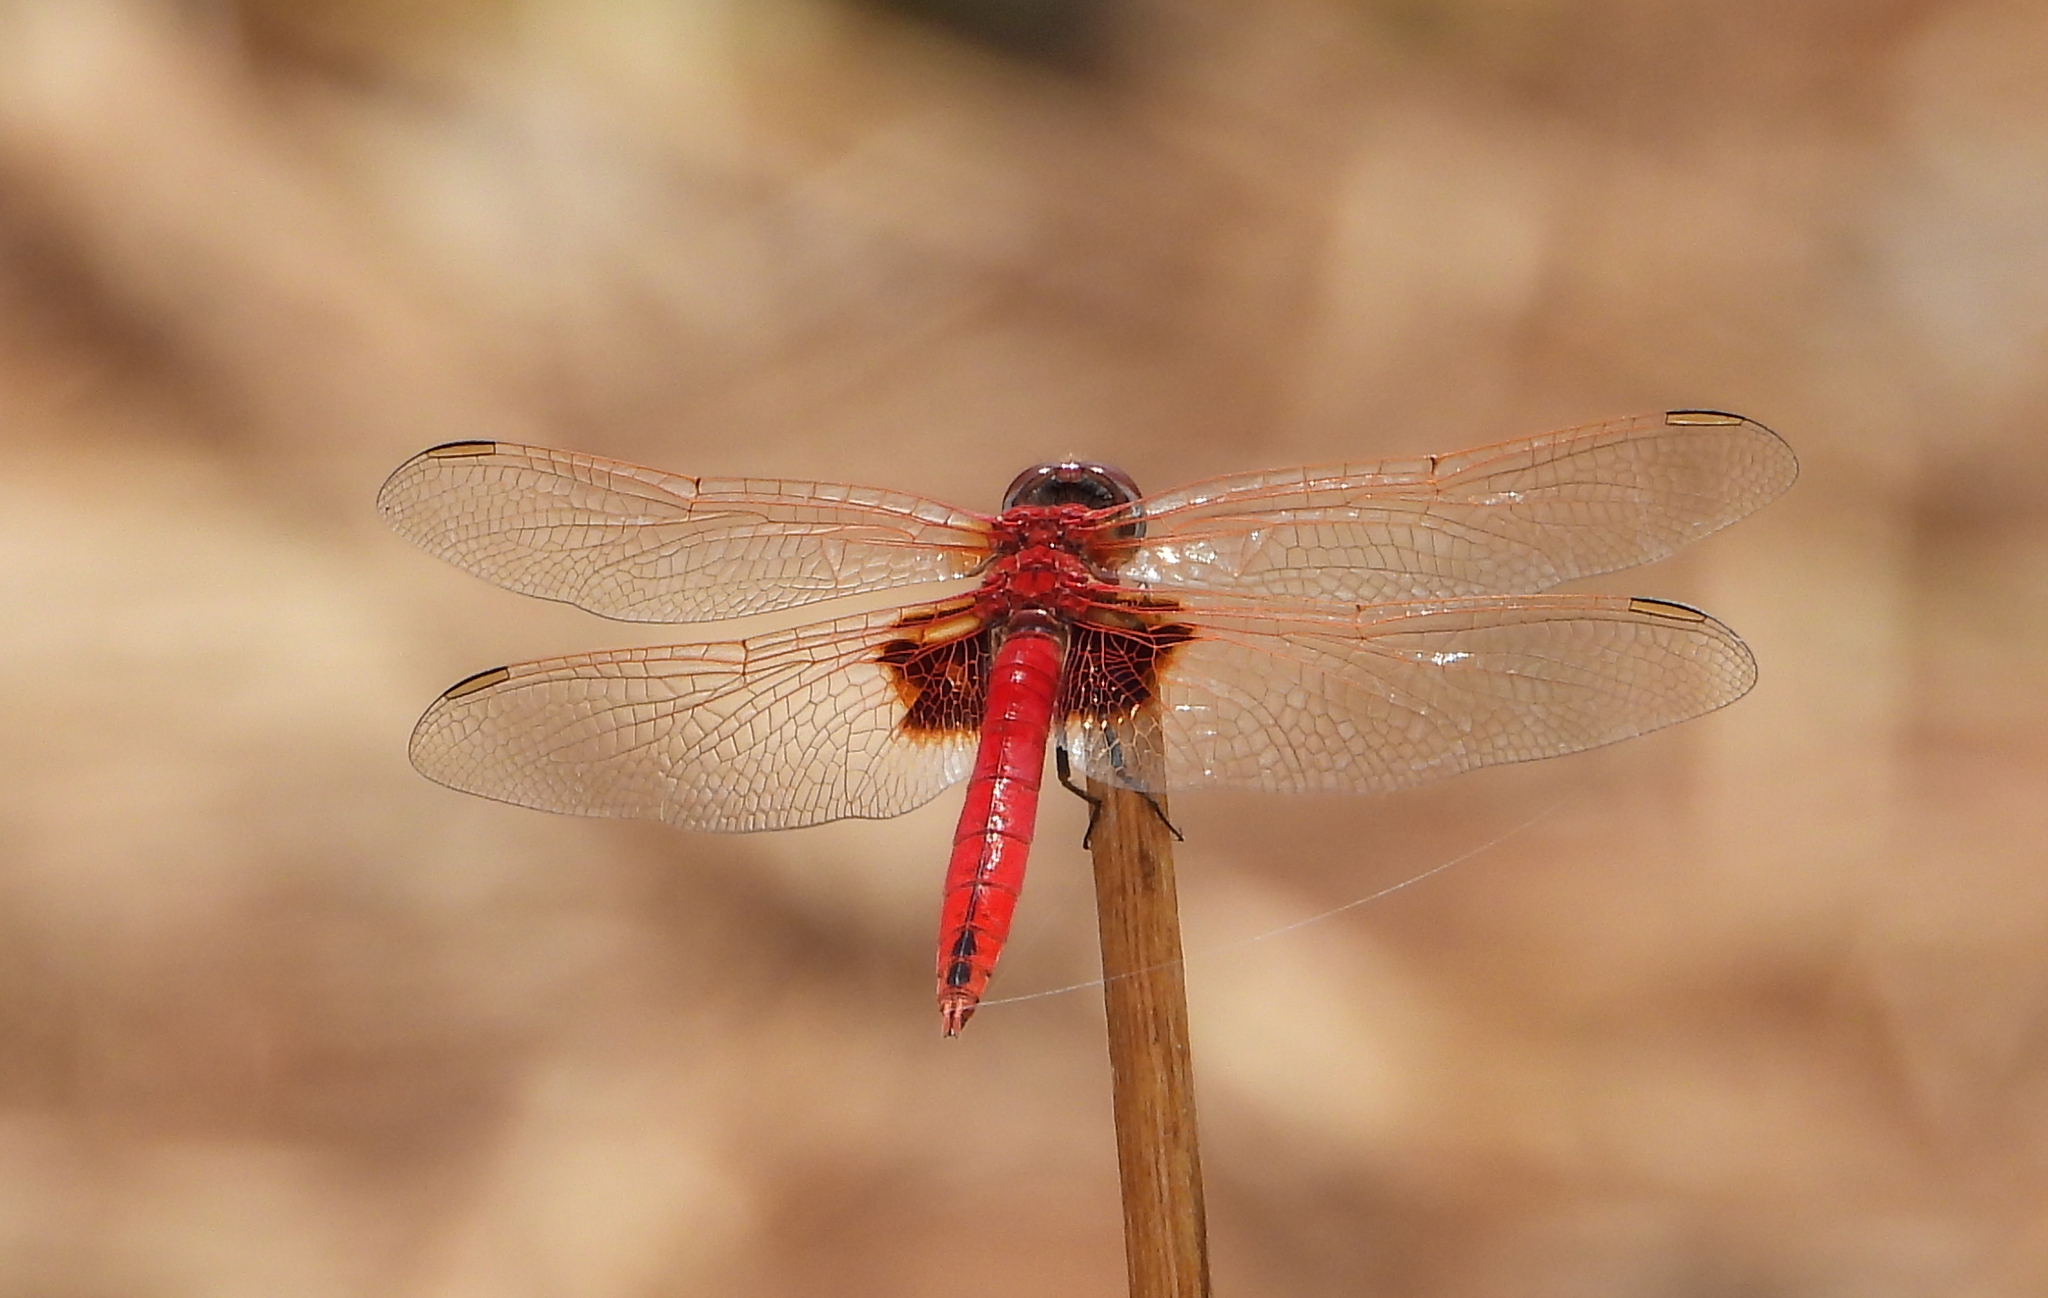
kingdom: Animalia
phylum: Arthropoda
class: Insecta
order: Odonata
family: Libellulidae
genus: Urothemis
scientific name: Urothemis assignata
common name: Red basker
